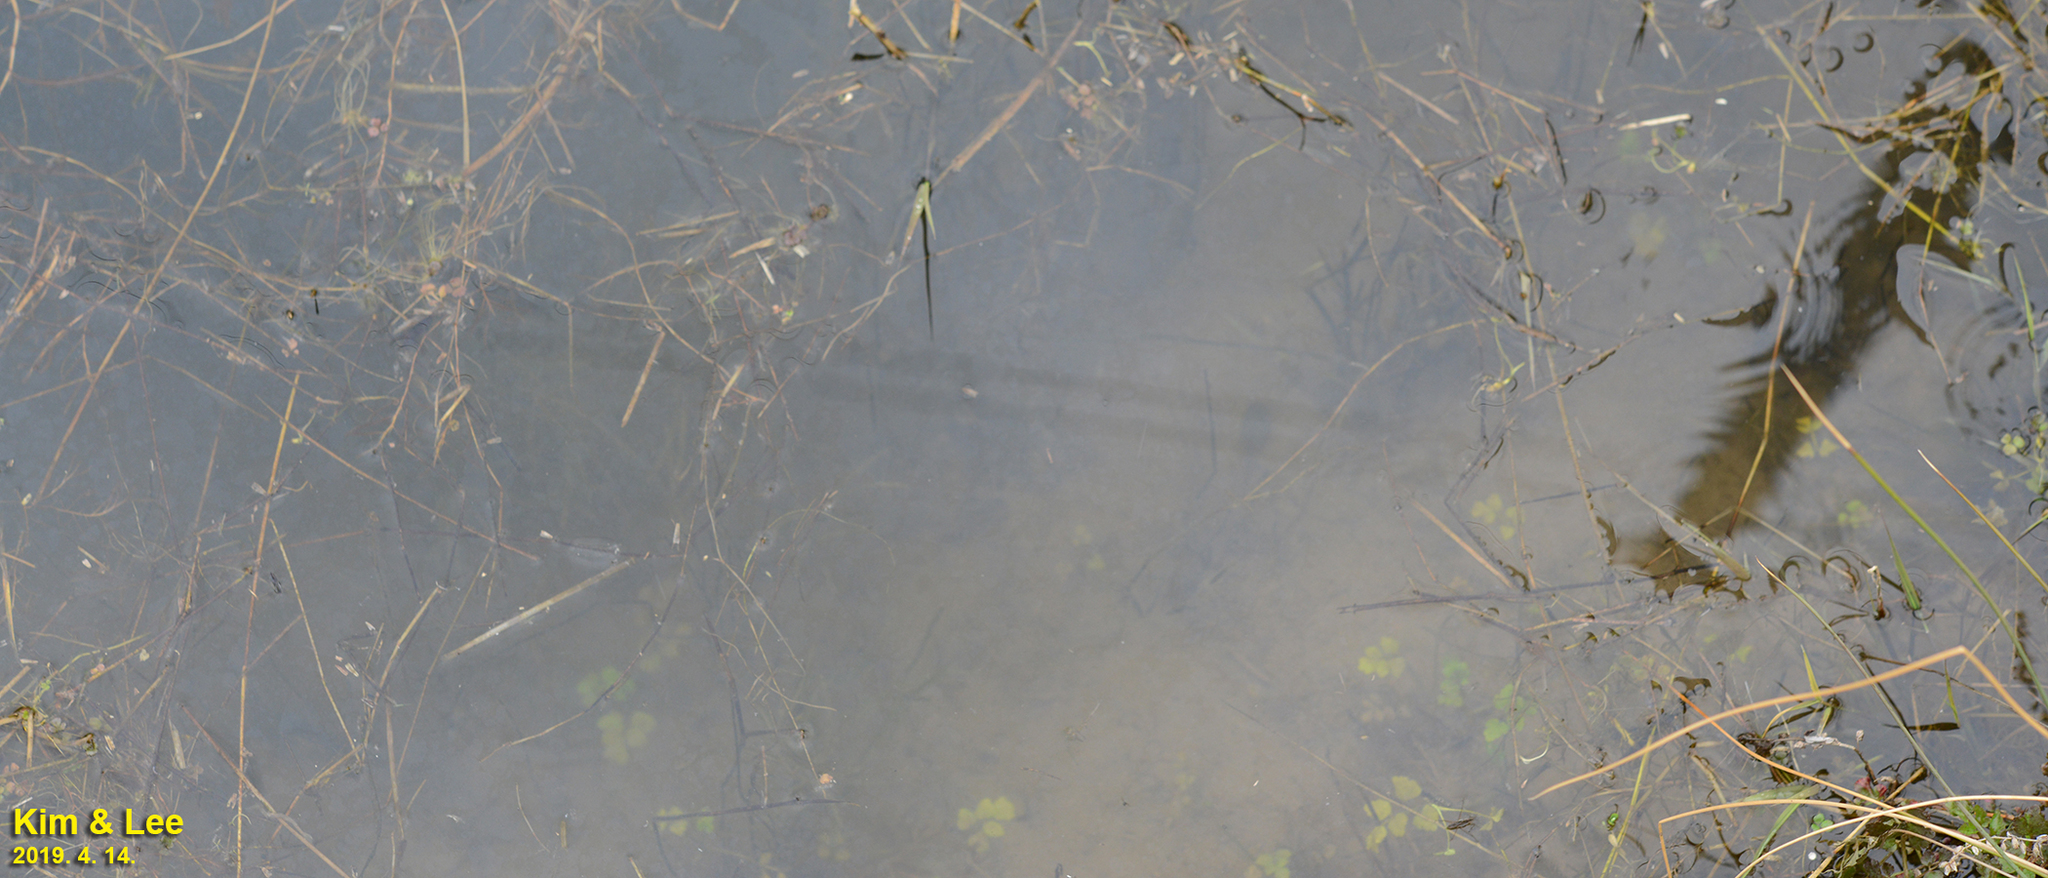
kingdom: Animalia
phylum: Chordata
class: Amphibia
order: Anura
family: Ranidae
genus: Lithobates
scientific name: Lithobates catesbeianus
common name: American bullfrog
